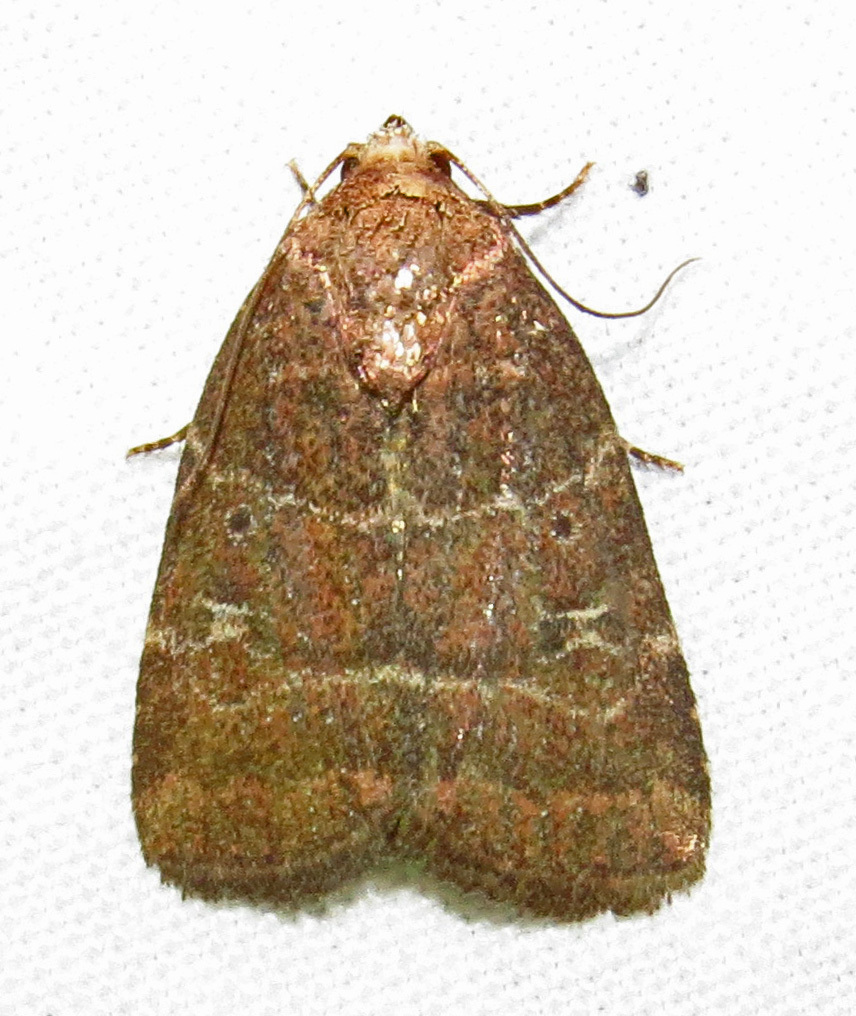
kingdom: Animalia
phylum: Arthropoda
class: Insecta
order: Lepidoptera
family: Noctuidae
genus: Elaphria
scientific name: Elaphria grata
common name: Grateful midget moth
